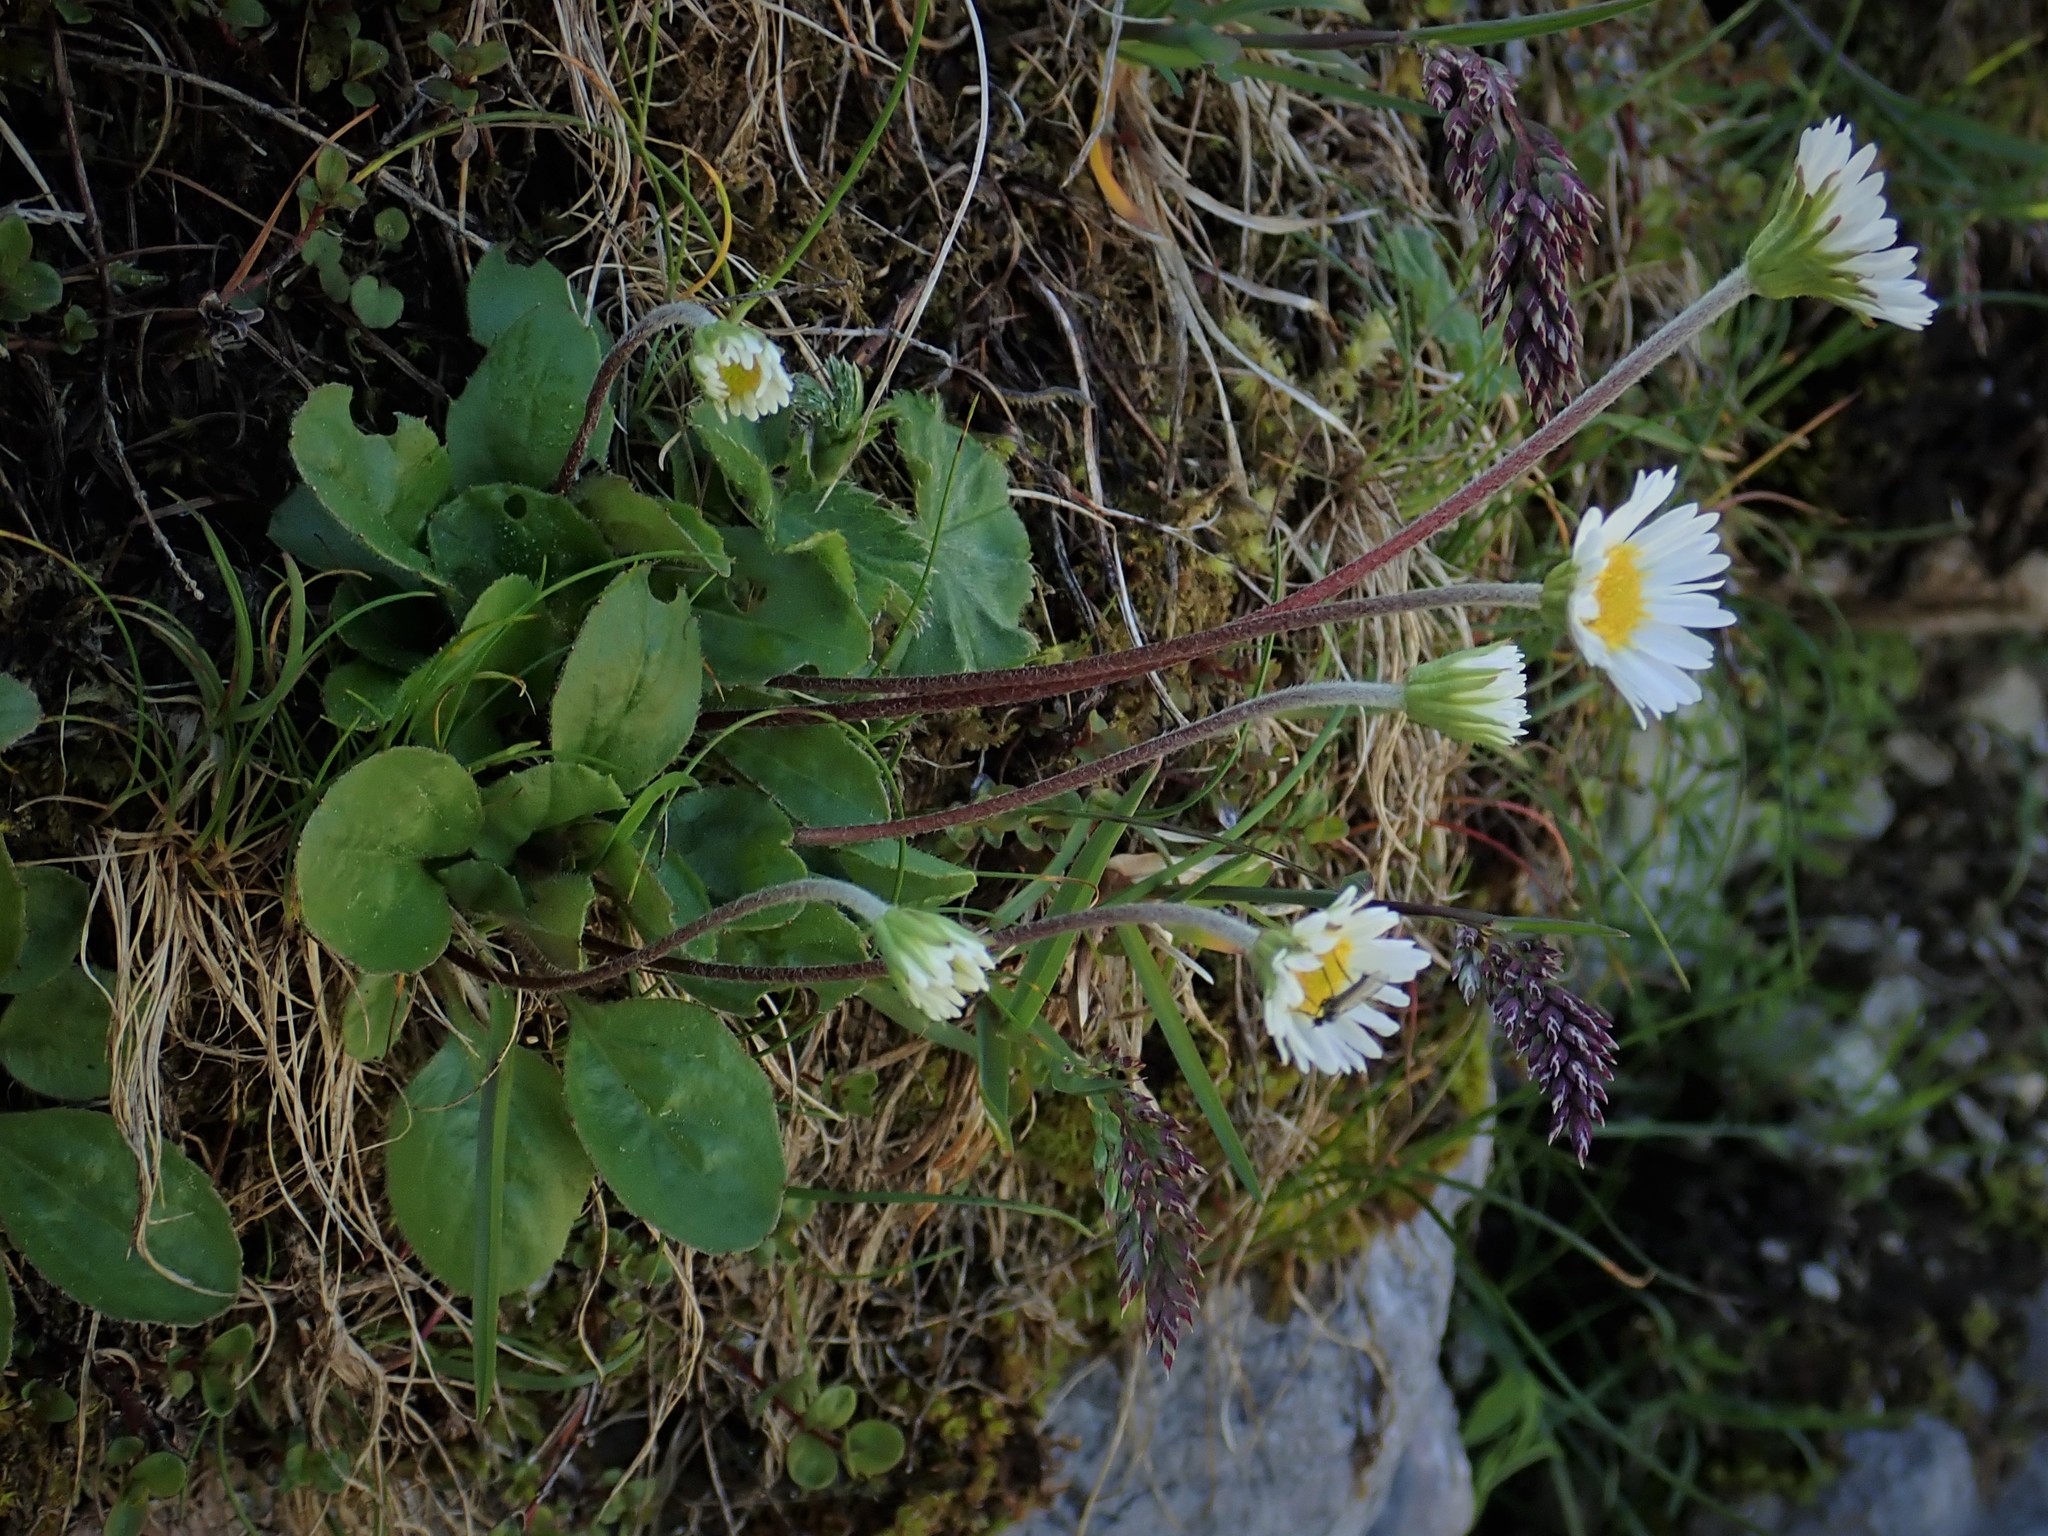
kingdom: Plantae
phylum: Tracheophyta
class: Magnoliopsida
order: Asterales
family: Asteraceae
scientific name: Asteraceae
